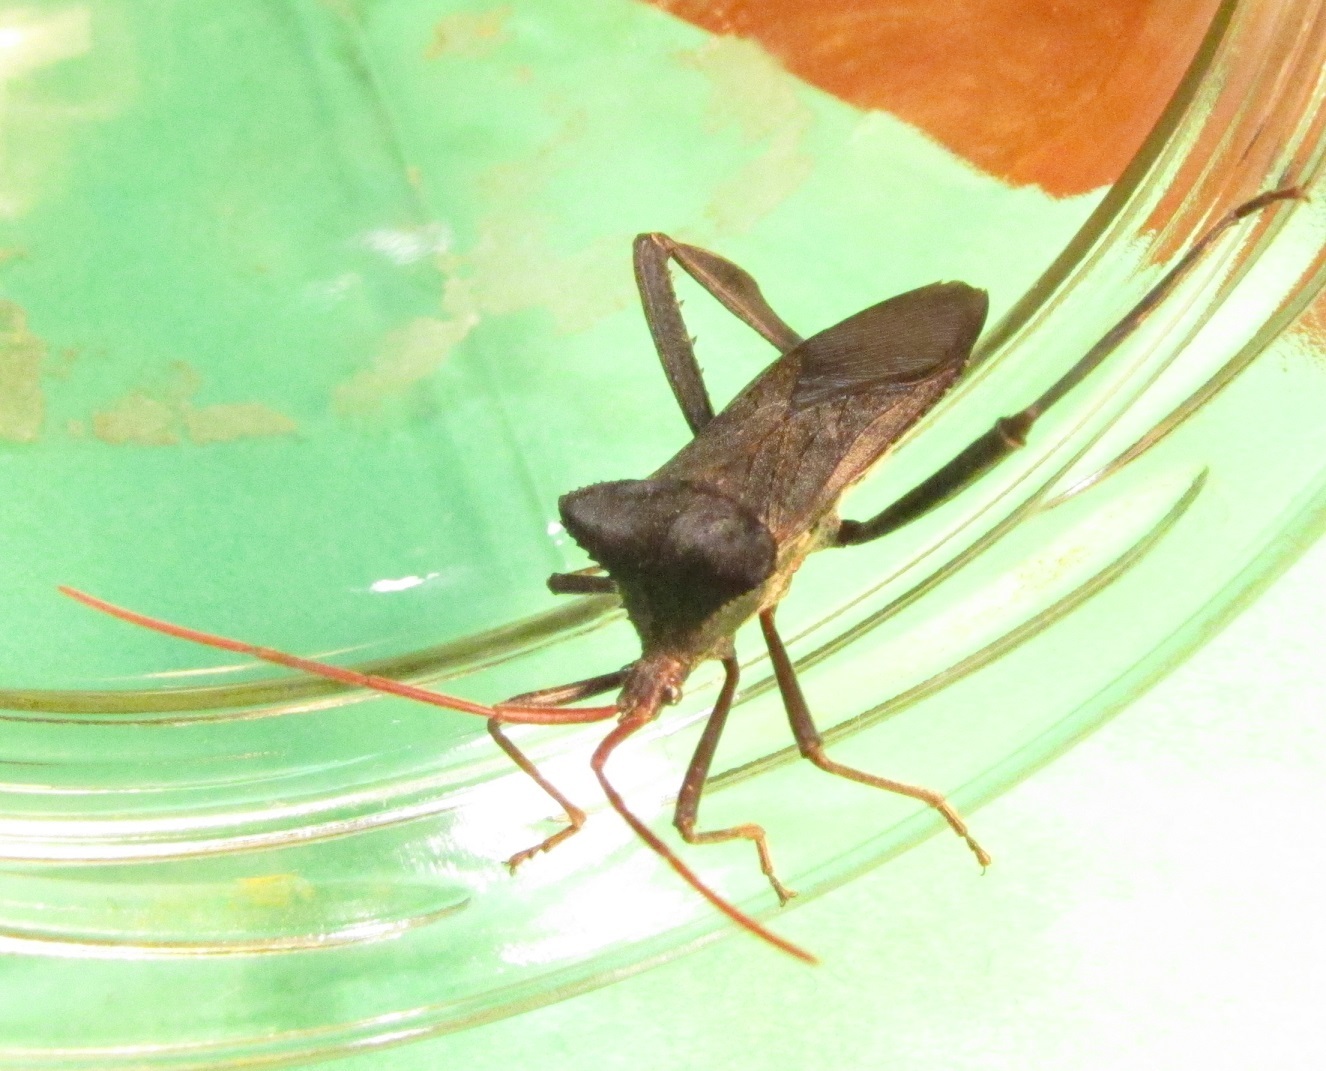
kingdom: Animalia
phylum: Arthropoda
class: Insecta
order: Hemiptera
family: Coreidae
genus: Acanthocephala
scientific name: Acanthocephala declivis
